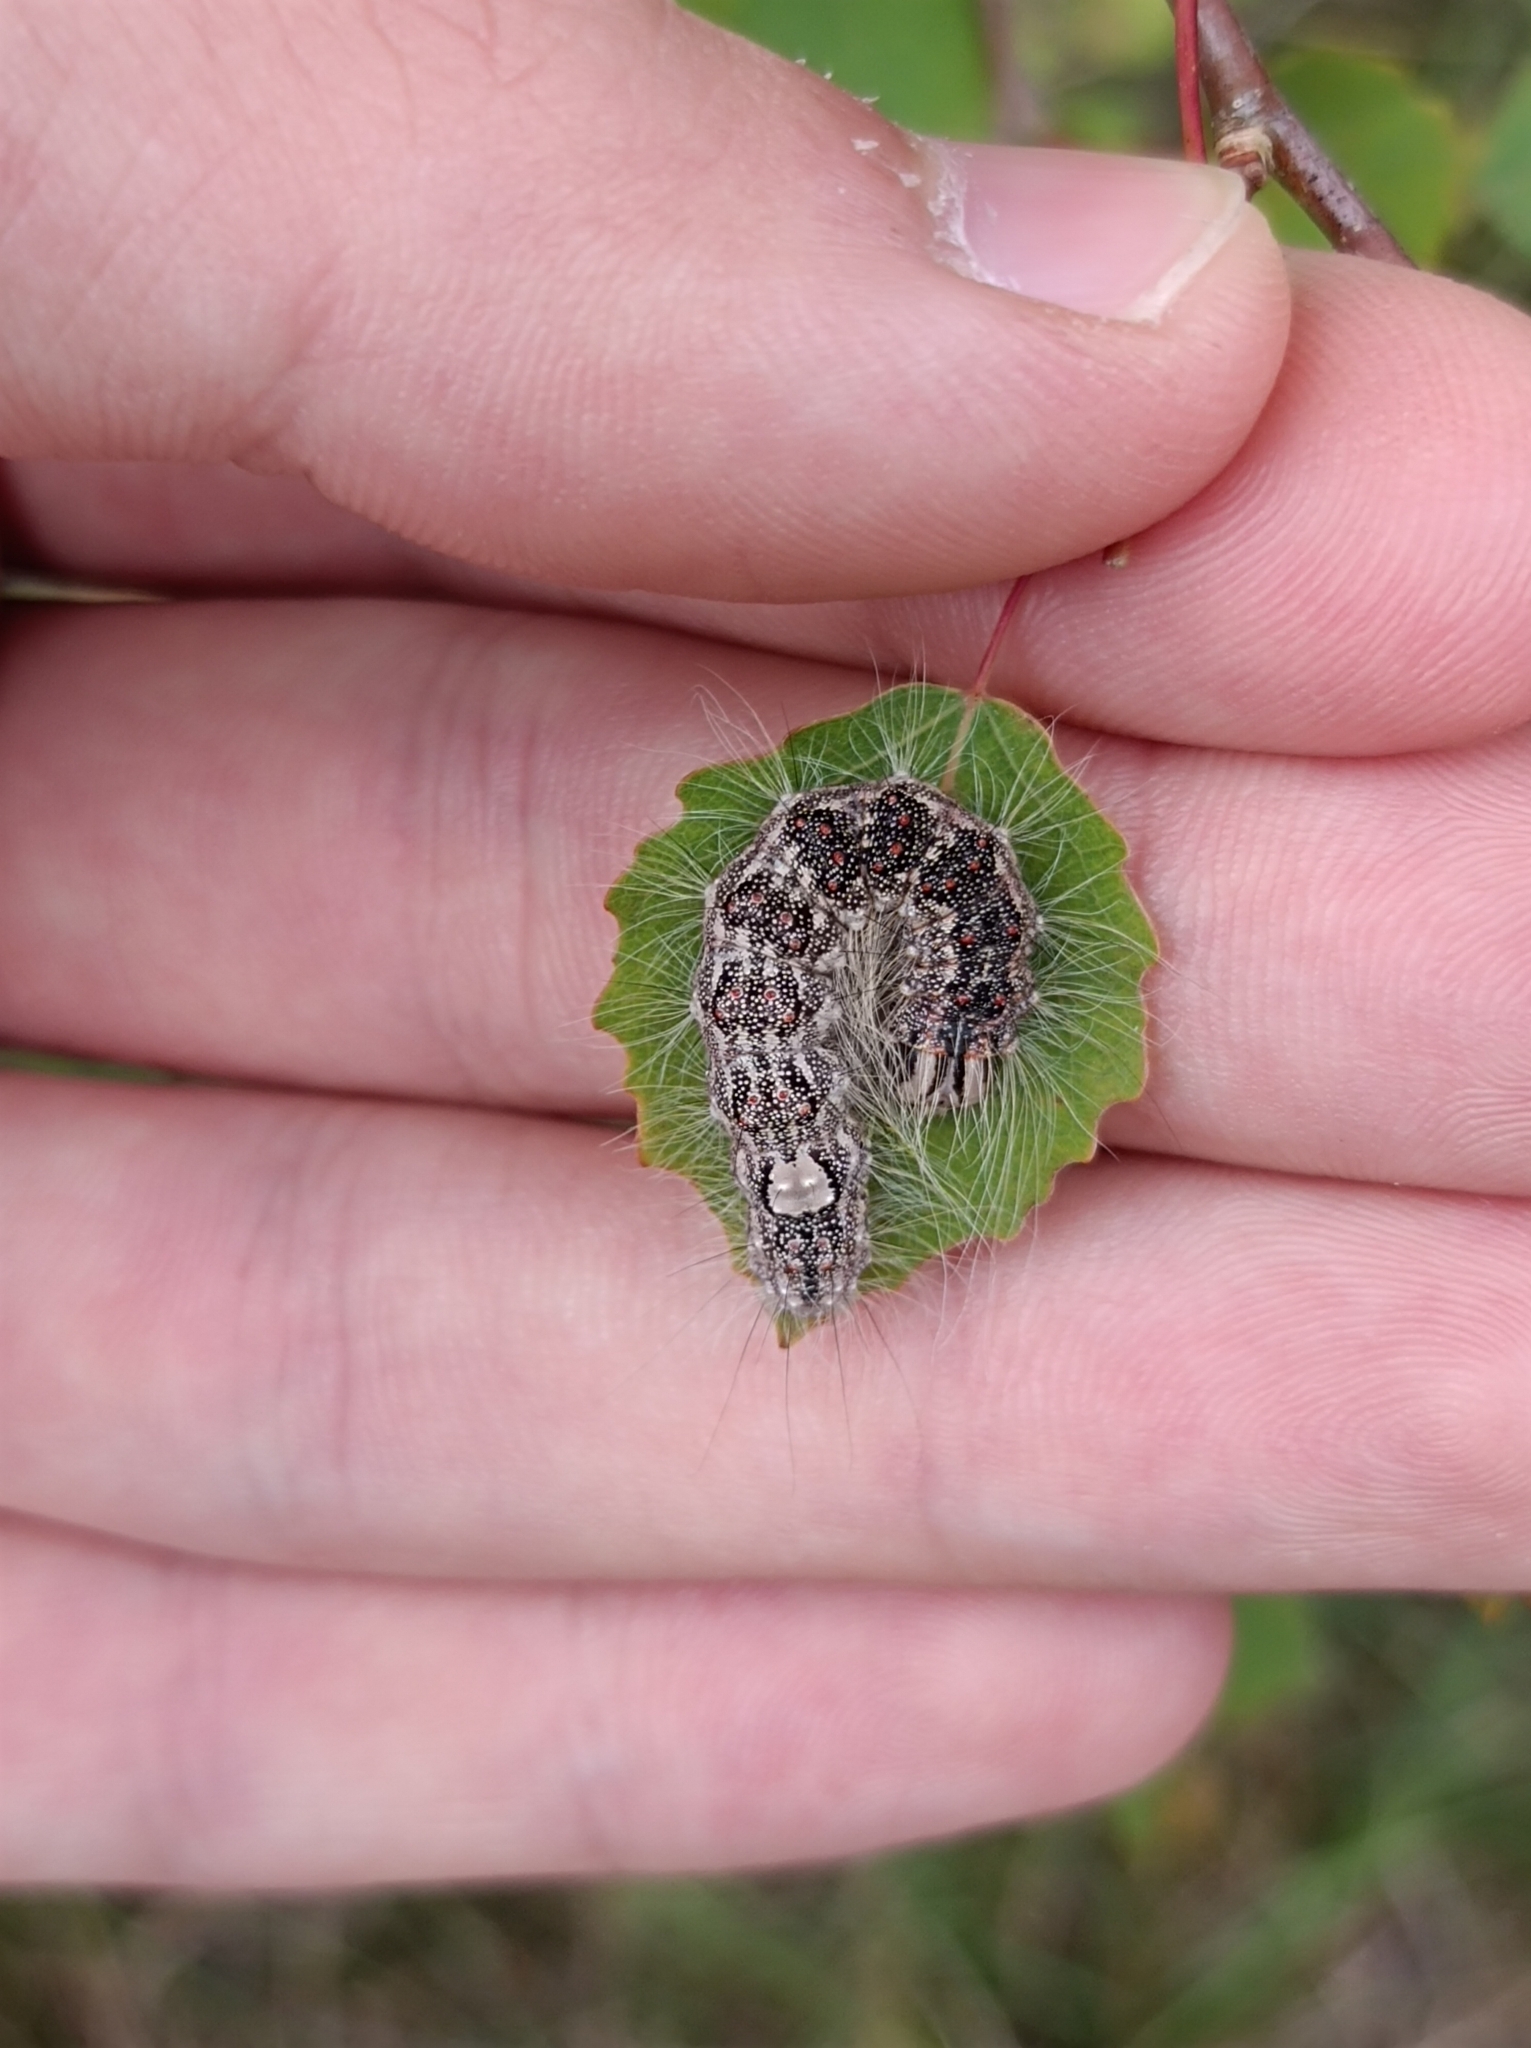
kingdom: Animalia
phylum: Arthropoda
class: Insecta
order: Lepidoptera
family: Noctuidae
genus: Acronicta
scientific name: Acronicta megacephala
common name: Poplar grey
